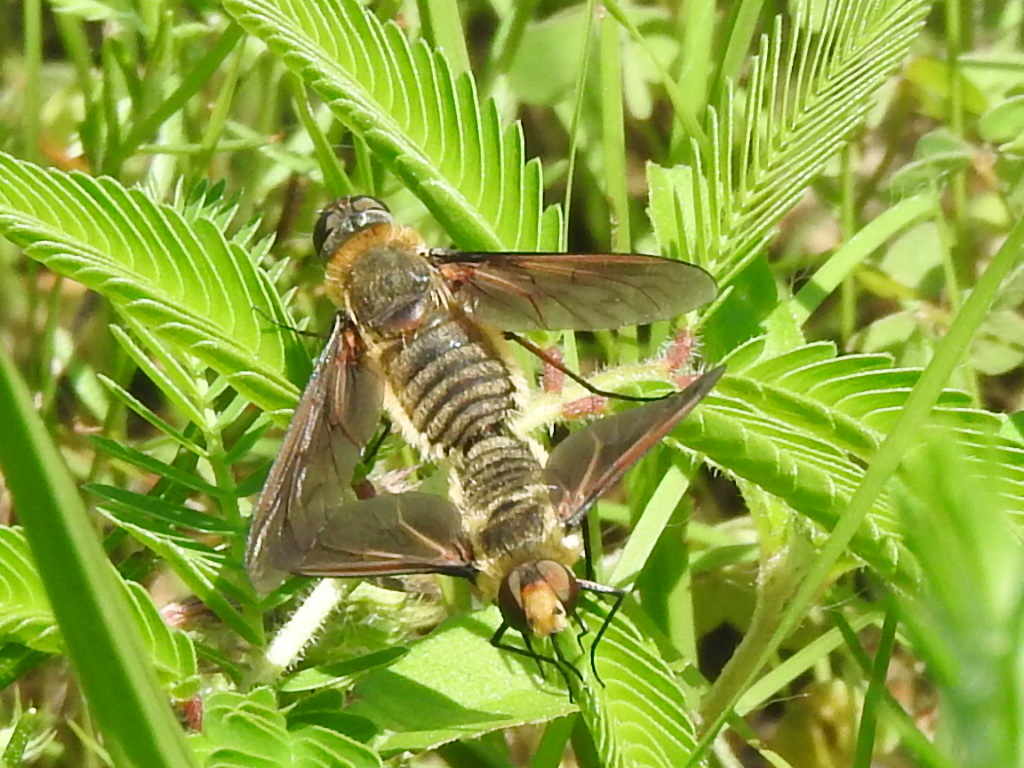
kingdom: Animalia
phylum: Arthropoda
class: Insecta
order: Diptera
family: Bombyliidae
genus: Poecilanthrax
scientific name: Poecilanthrax lucifer
